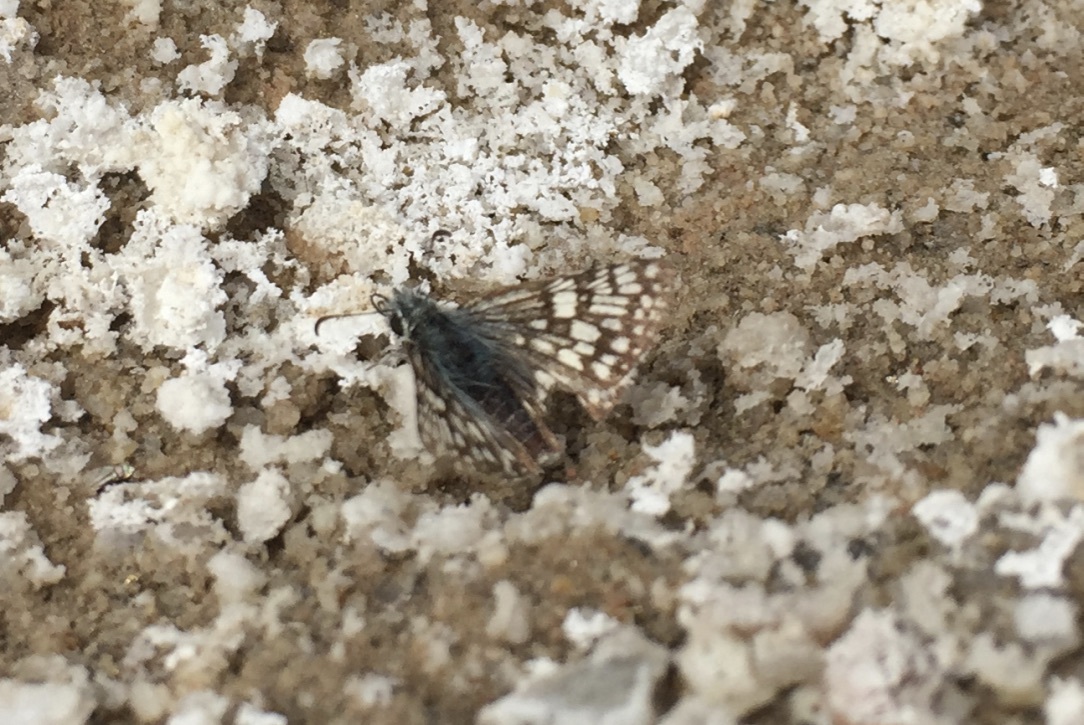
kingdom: Animalia
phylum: Arthropoda
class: Insecta
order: Lepidoptera
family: Hesperiidae
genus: Burnsius
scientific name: Burnsius albezens
